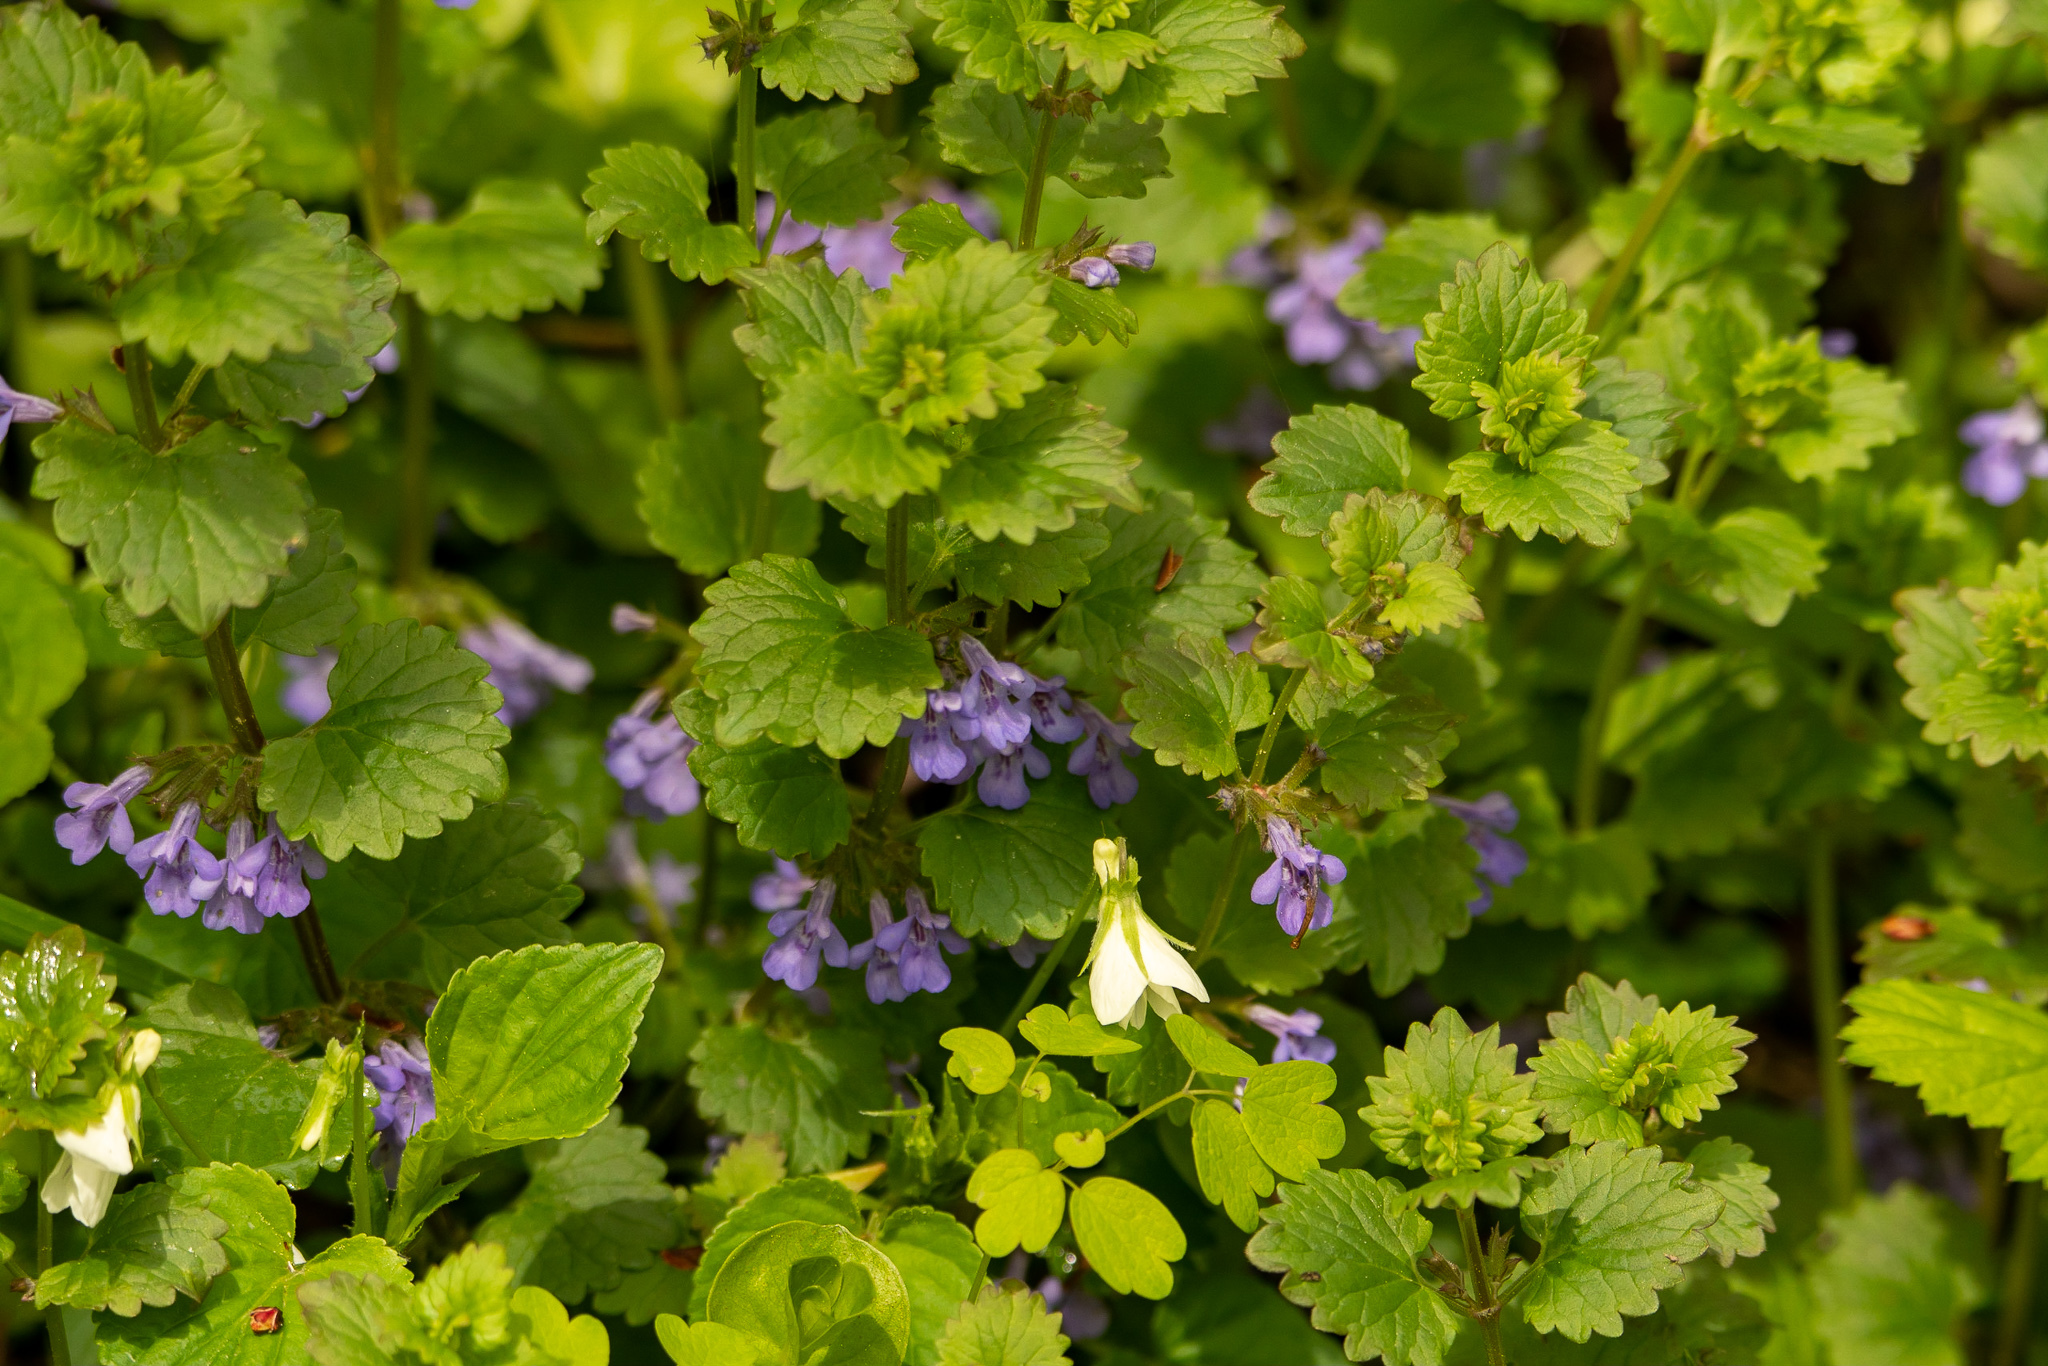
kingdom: Plantae
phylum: Tracheophyta
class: Magnoliopsida
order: Lamiales
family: Lamiaceae
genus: Glechoma
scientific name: Glechoma hederacea
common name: Ground ivy
